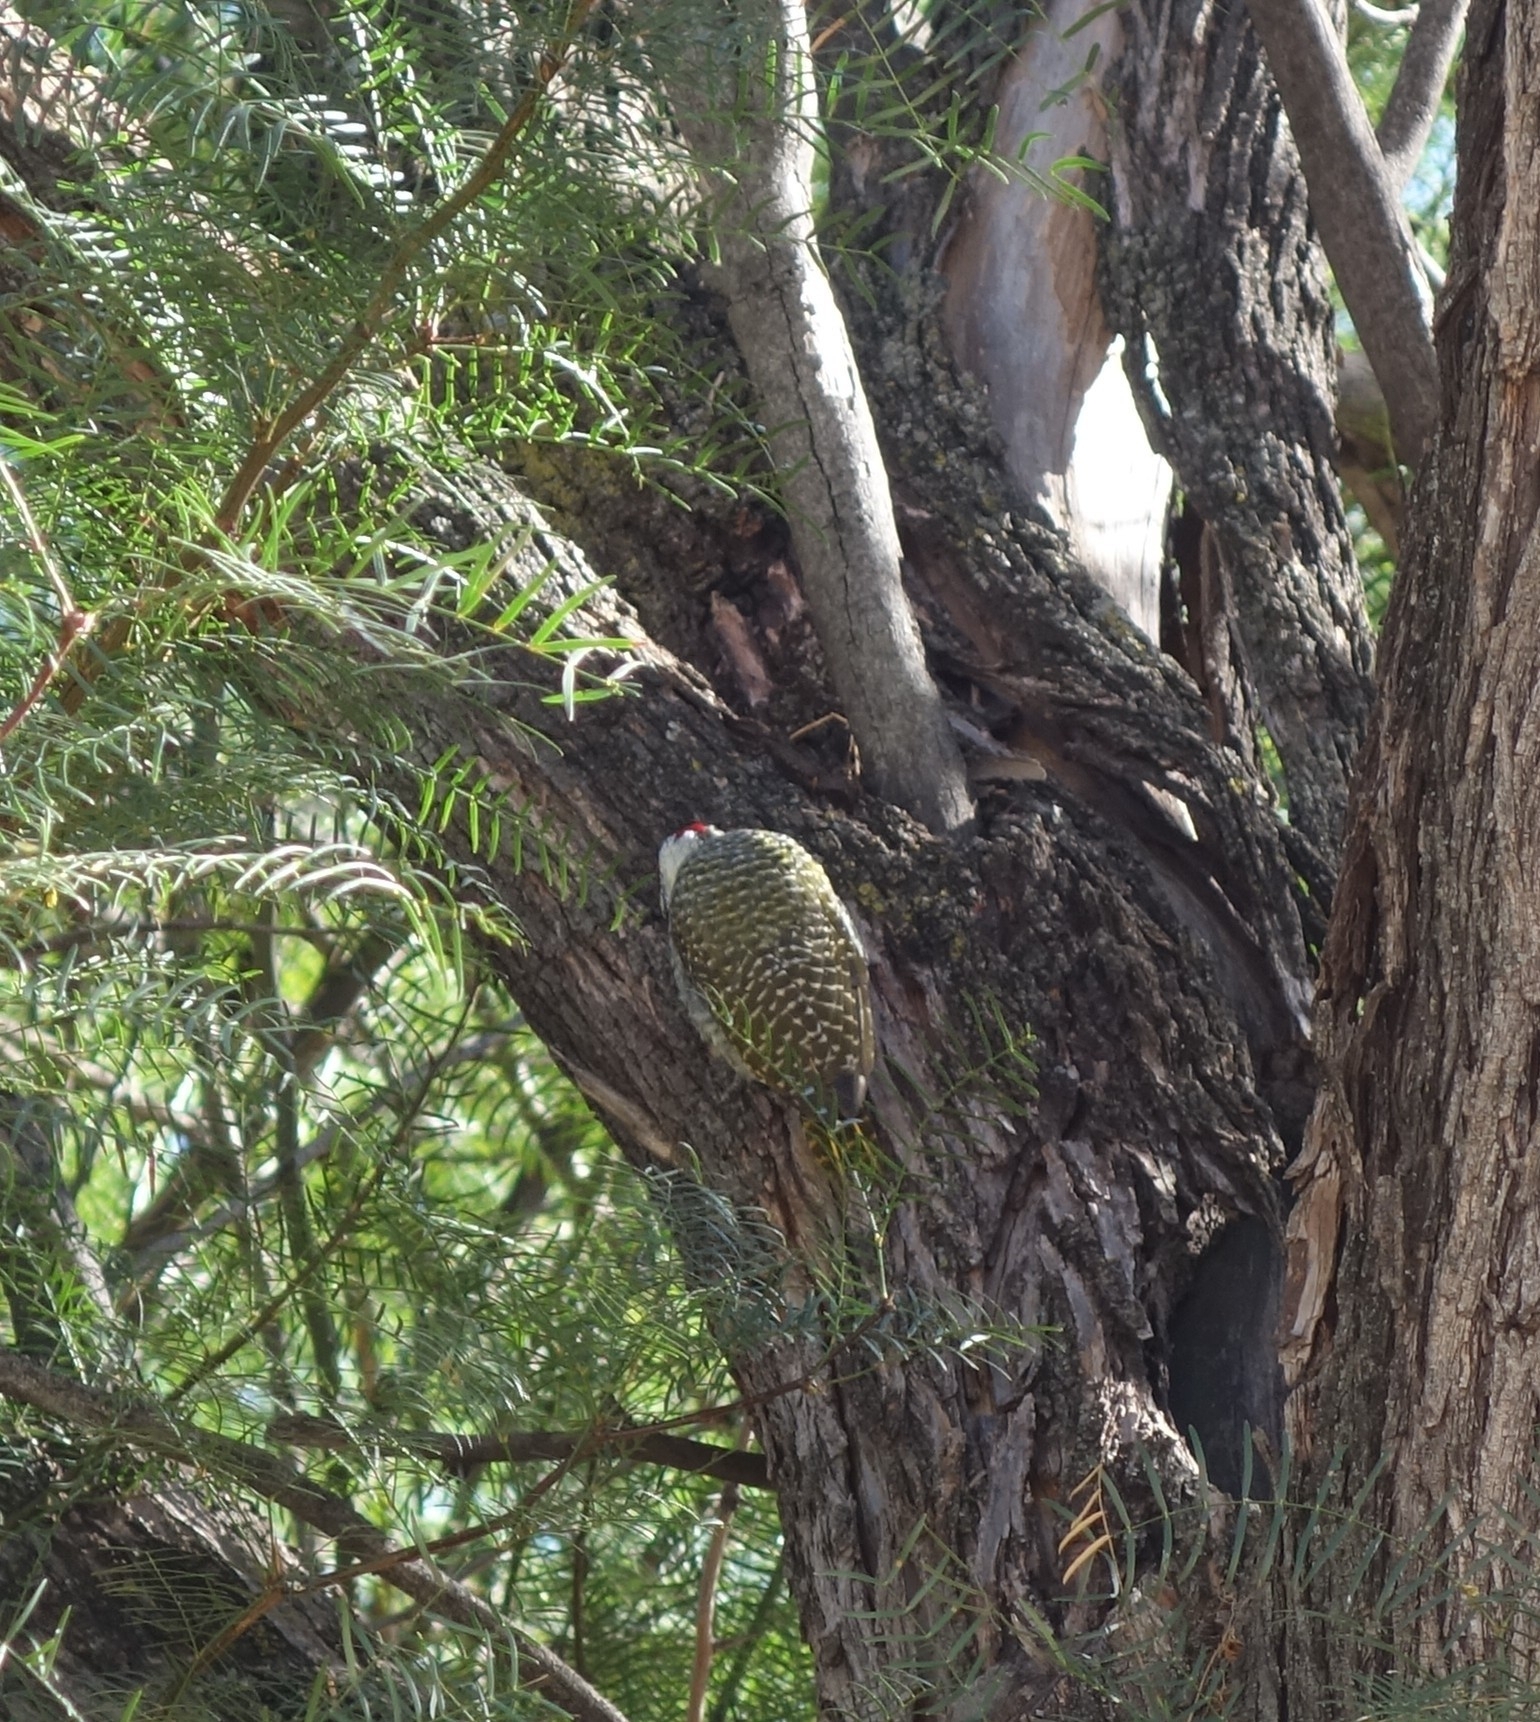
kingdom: Animalia
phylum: Chordata
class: Aves
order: Piciformes
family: Picidae
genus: Campethera
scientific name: Campethera abingoni
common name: Golden-tailed woodpecker
